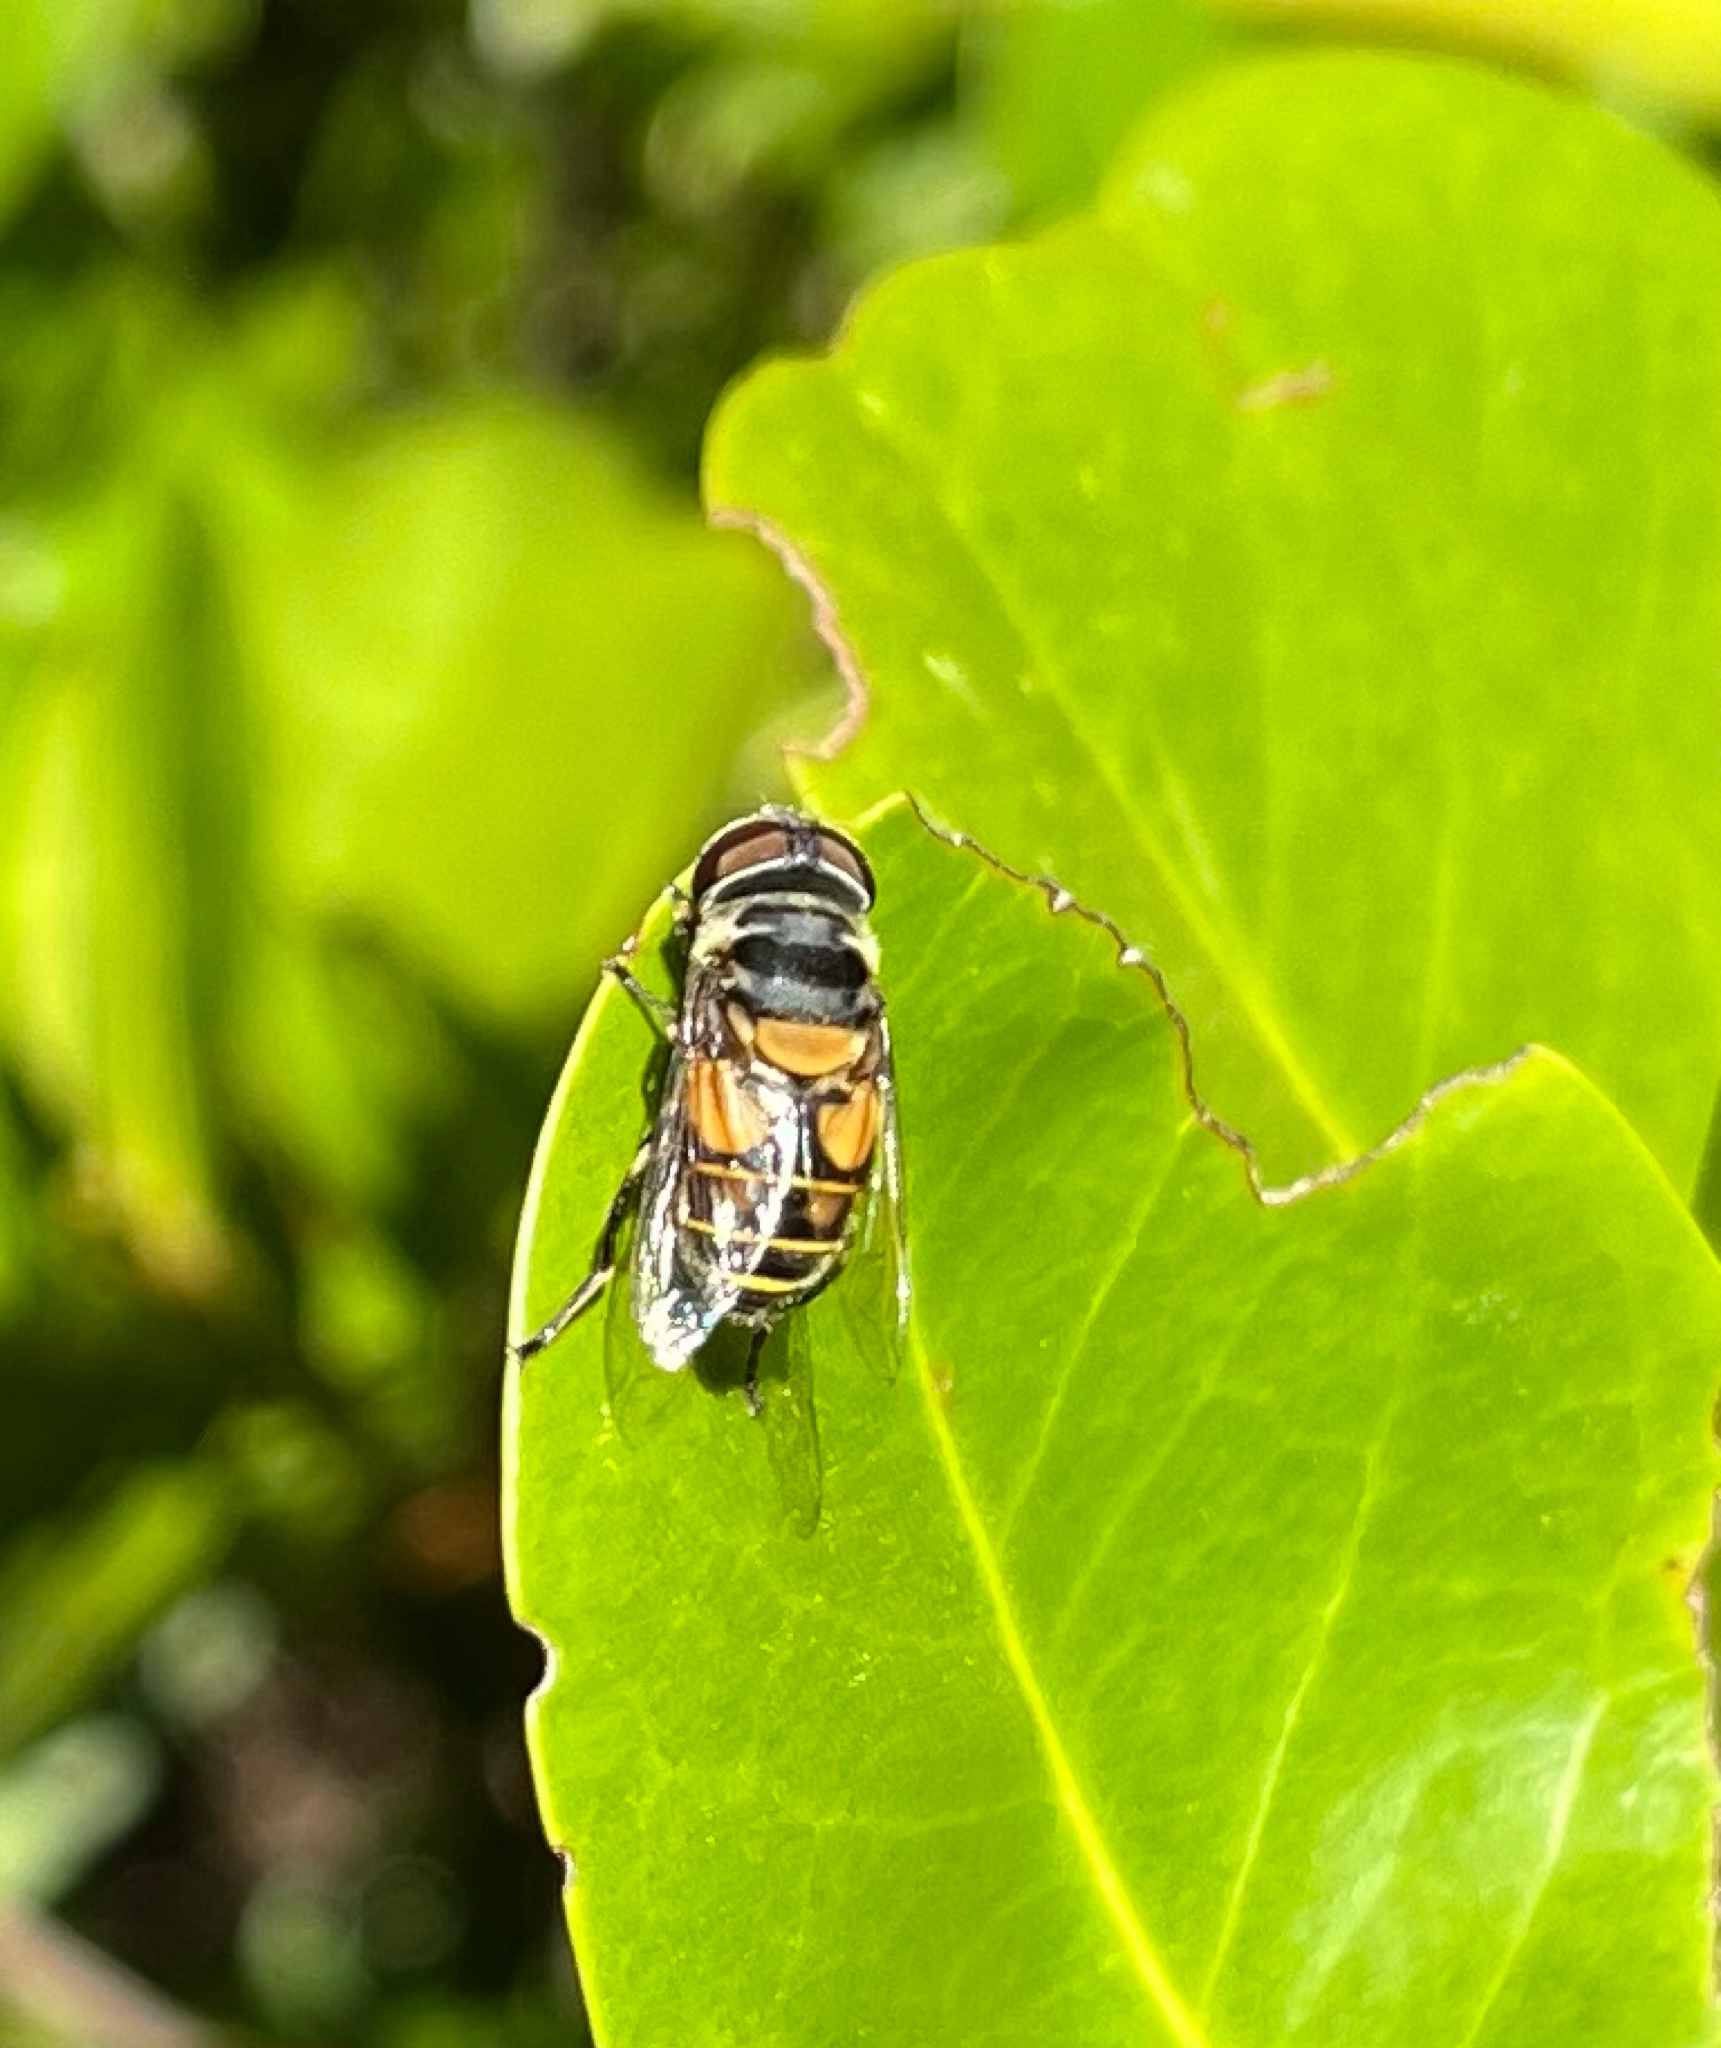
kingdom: Animalia
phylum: Arthropoda
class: Insecta
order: Diptera
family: Syrphidae
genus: Palpada
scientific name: Palpada agrorum
